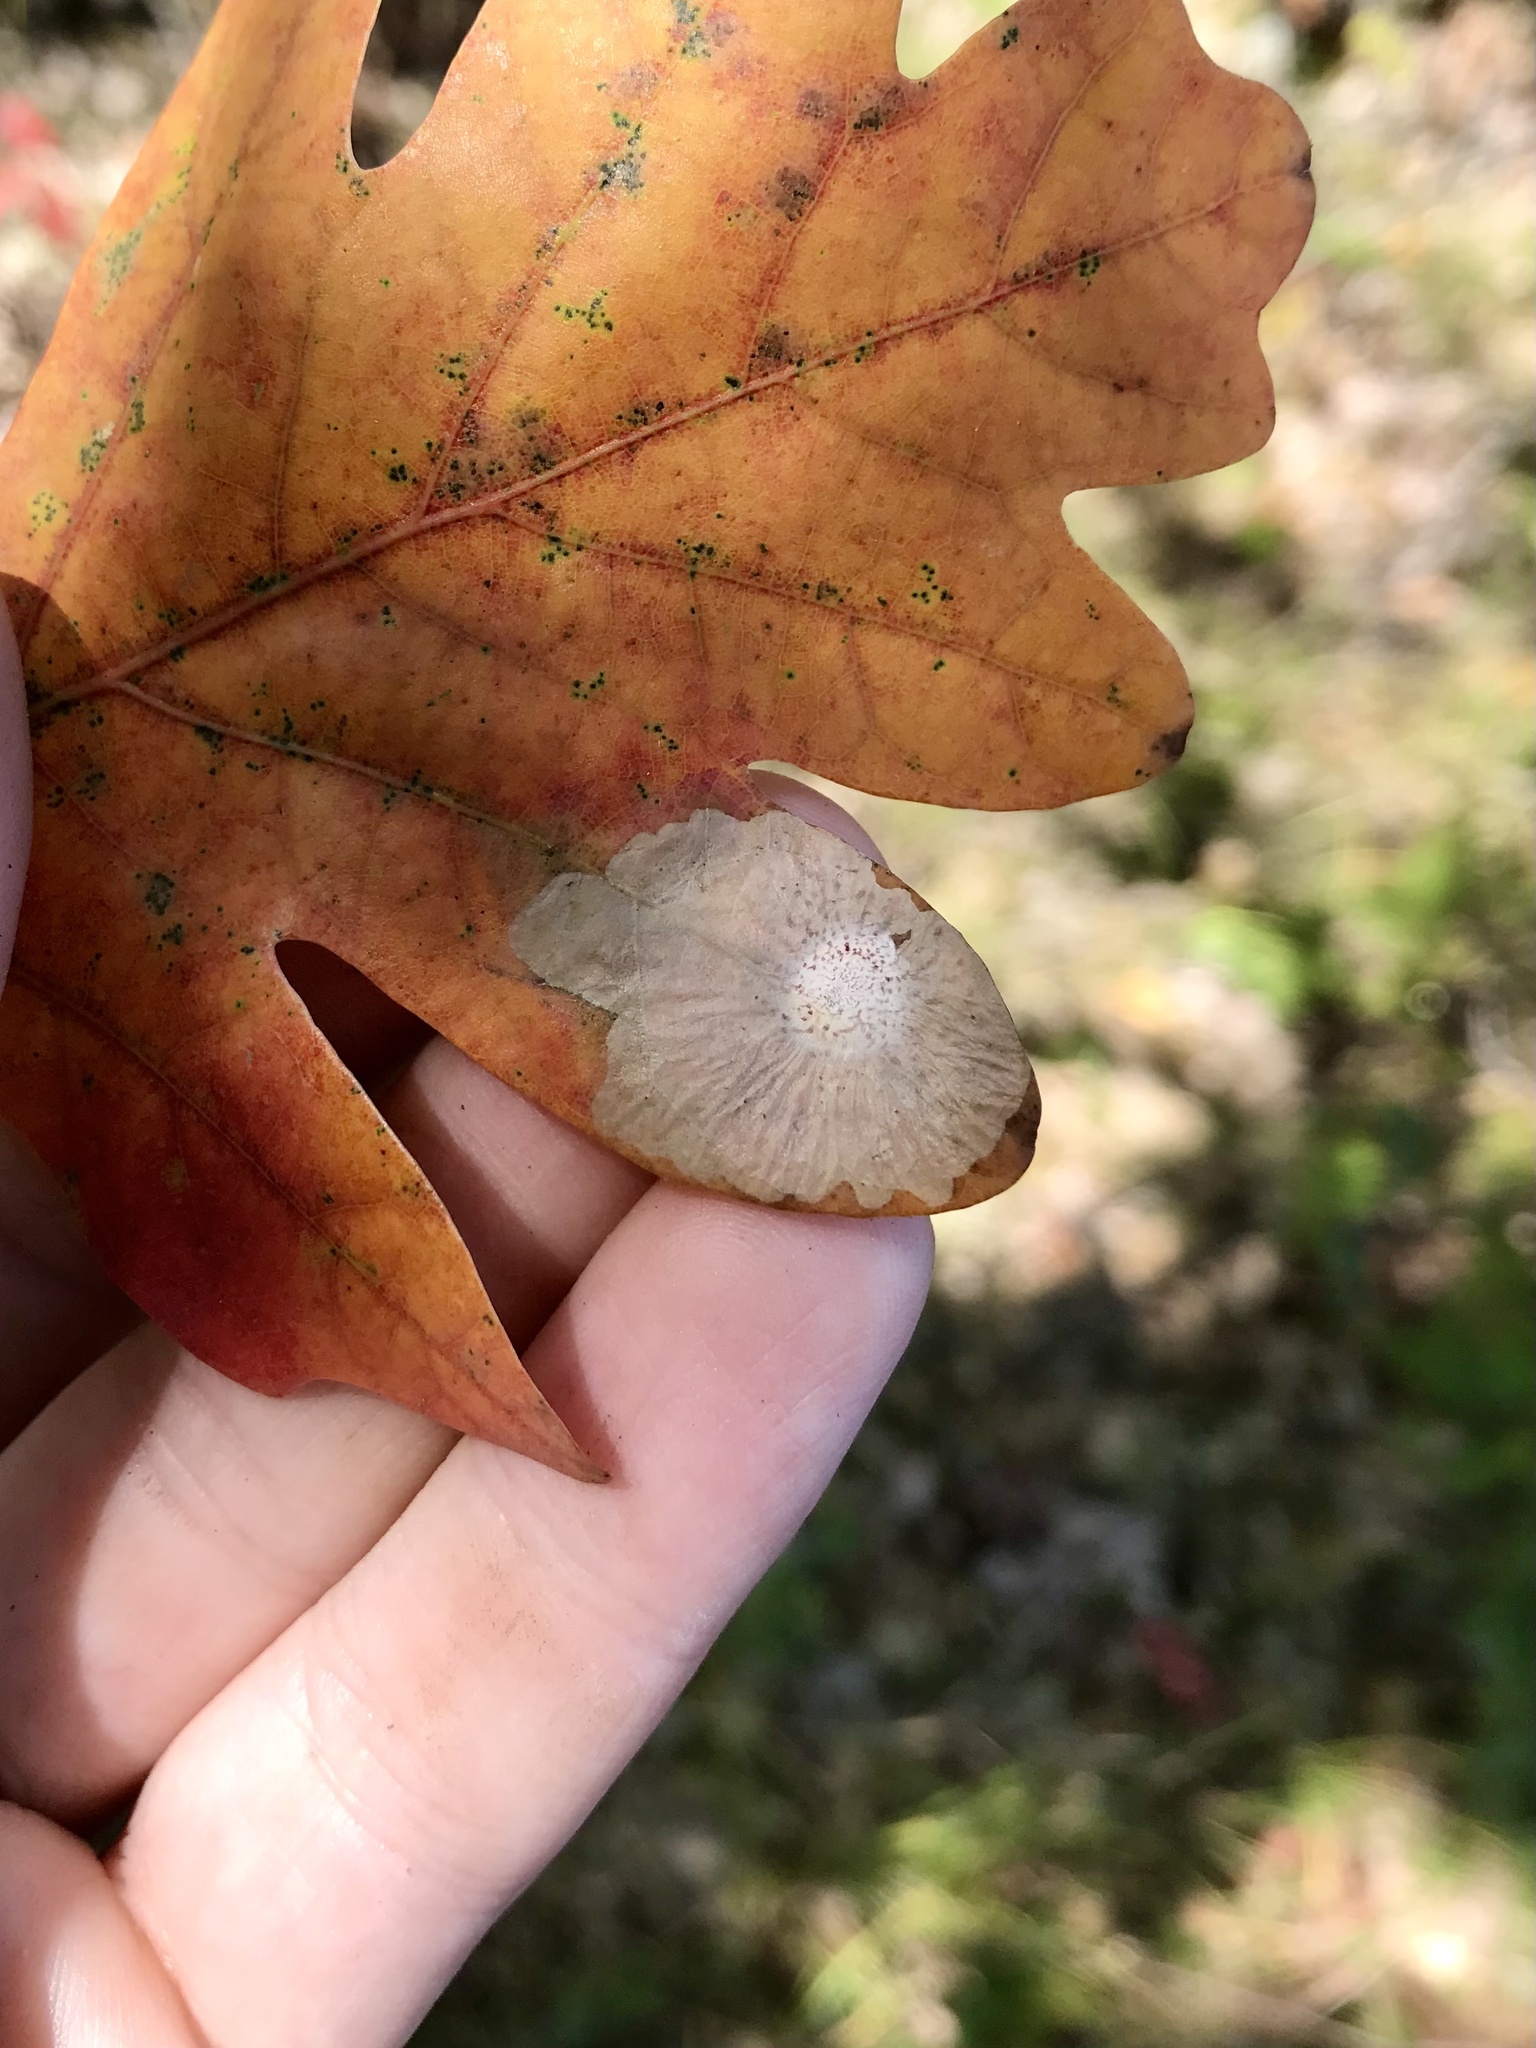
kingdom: Animalia
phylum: Arthropoda
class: Insecta
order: Lepidoptera
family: Tischeriidae
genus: Tischeria
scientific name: Tischeria quercitella
